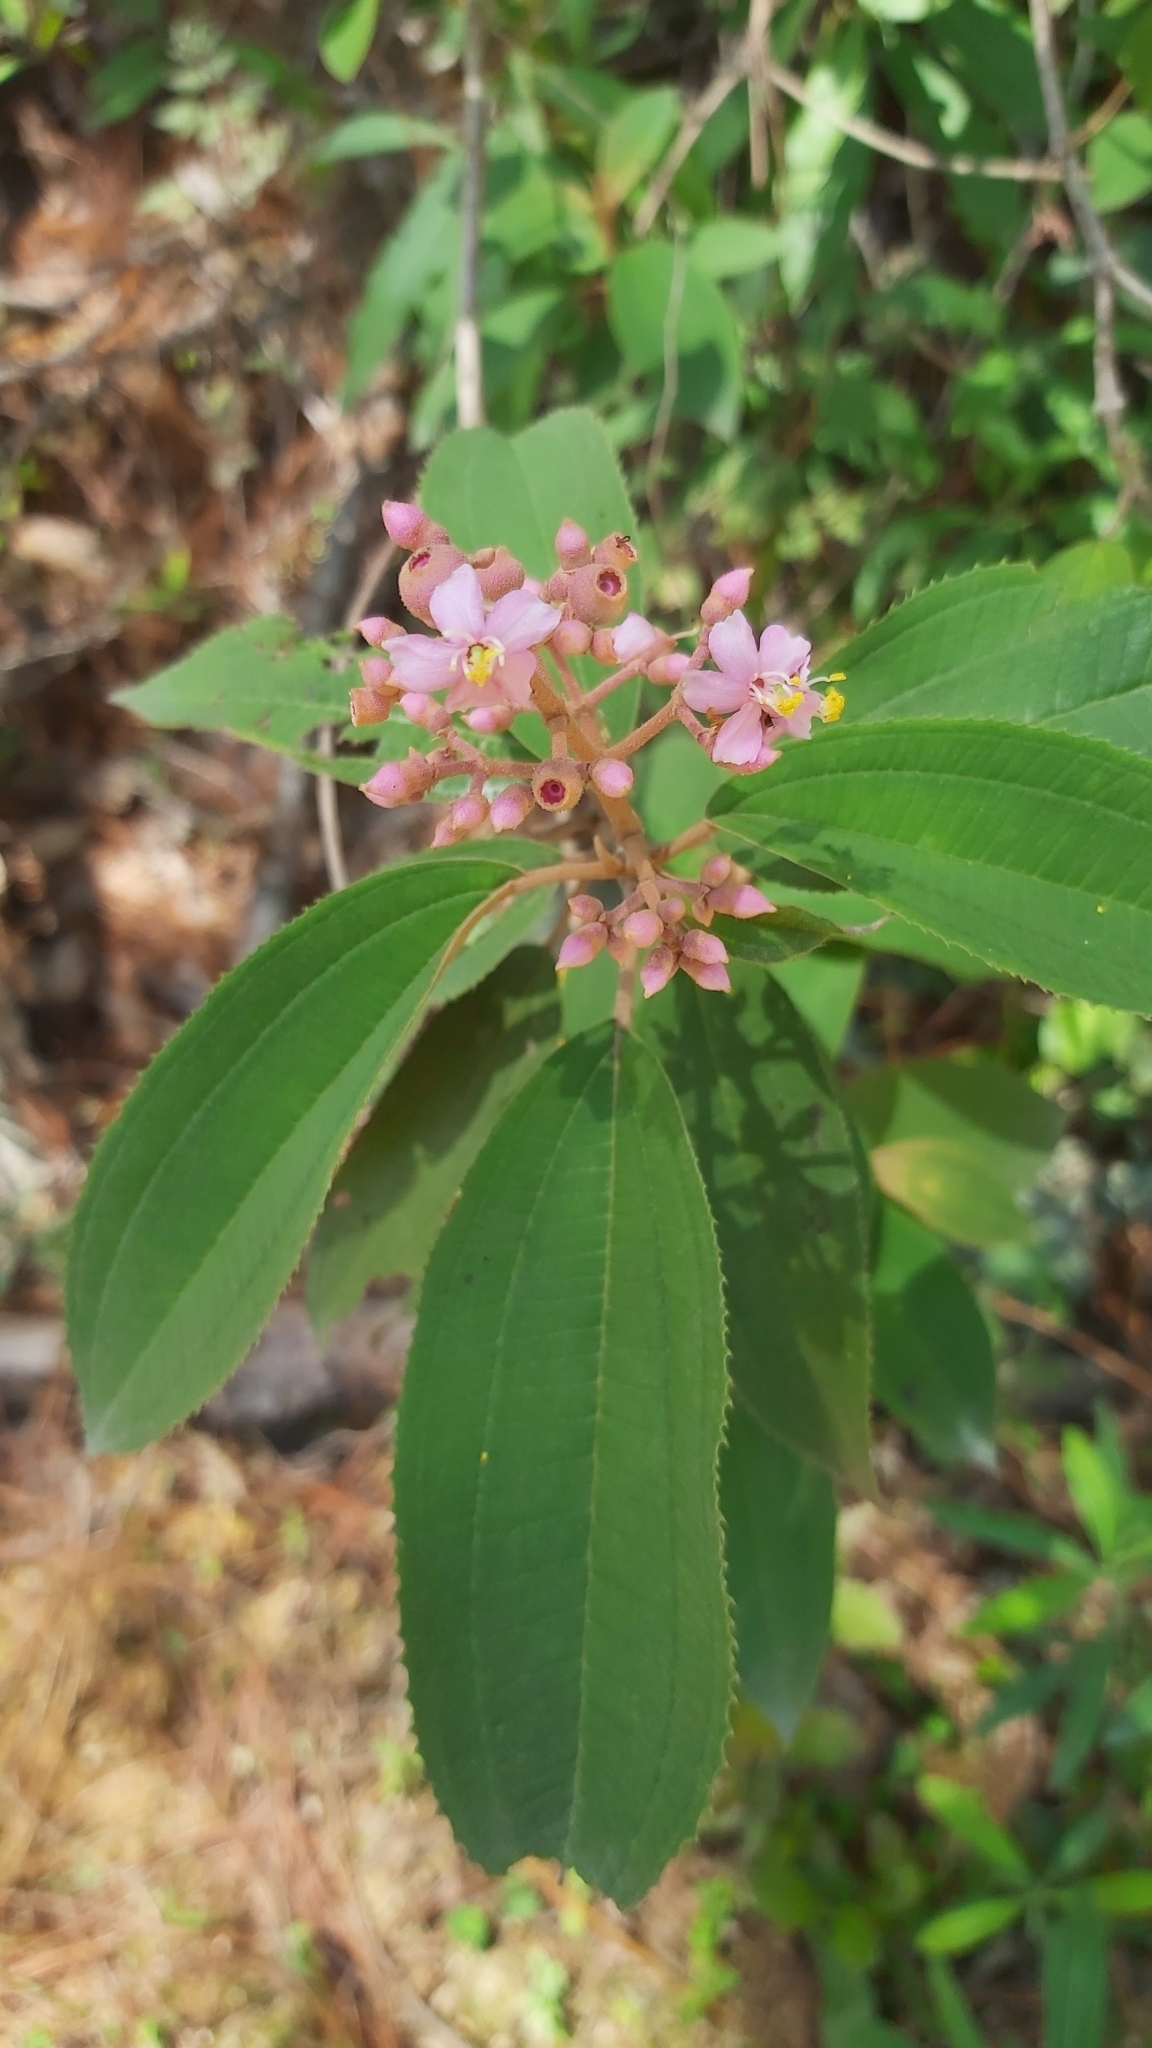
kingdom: Plantae
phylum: Tracheophyta
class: Magnoliopsida
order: Myrtales
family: Melastomataceae
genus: Miconia
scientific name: Miconia xalapensis
